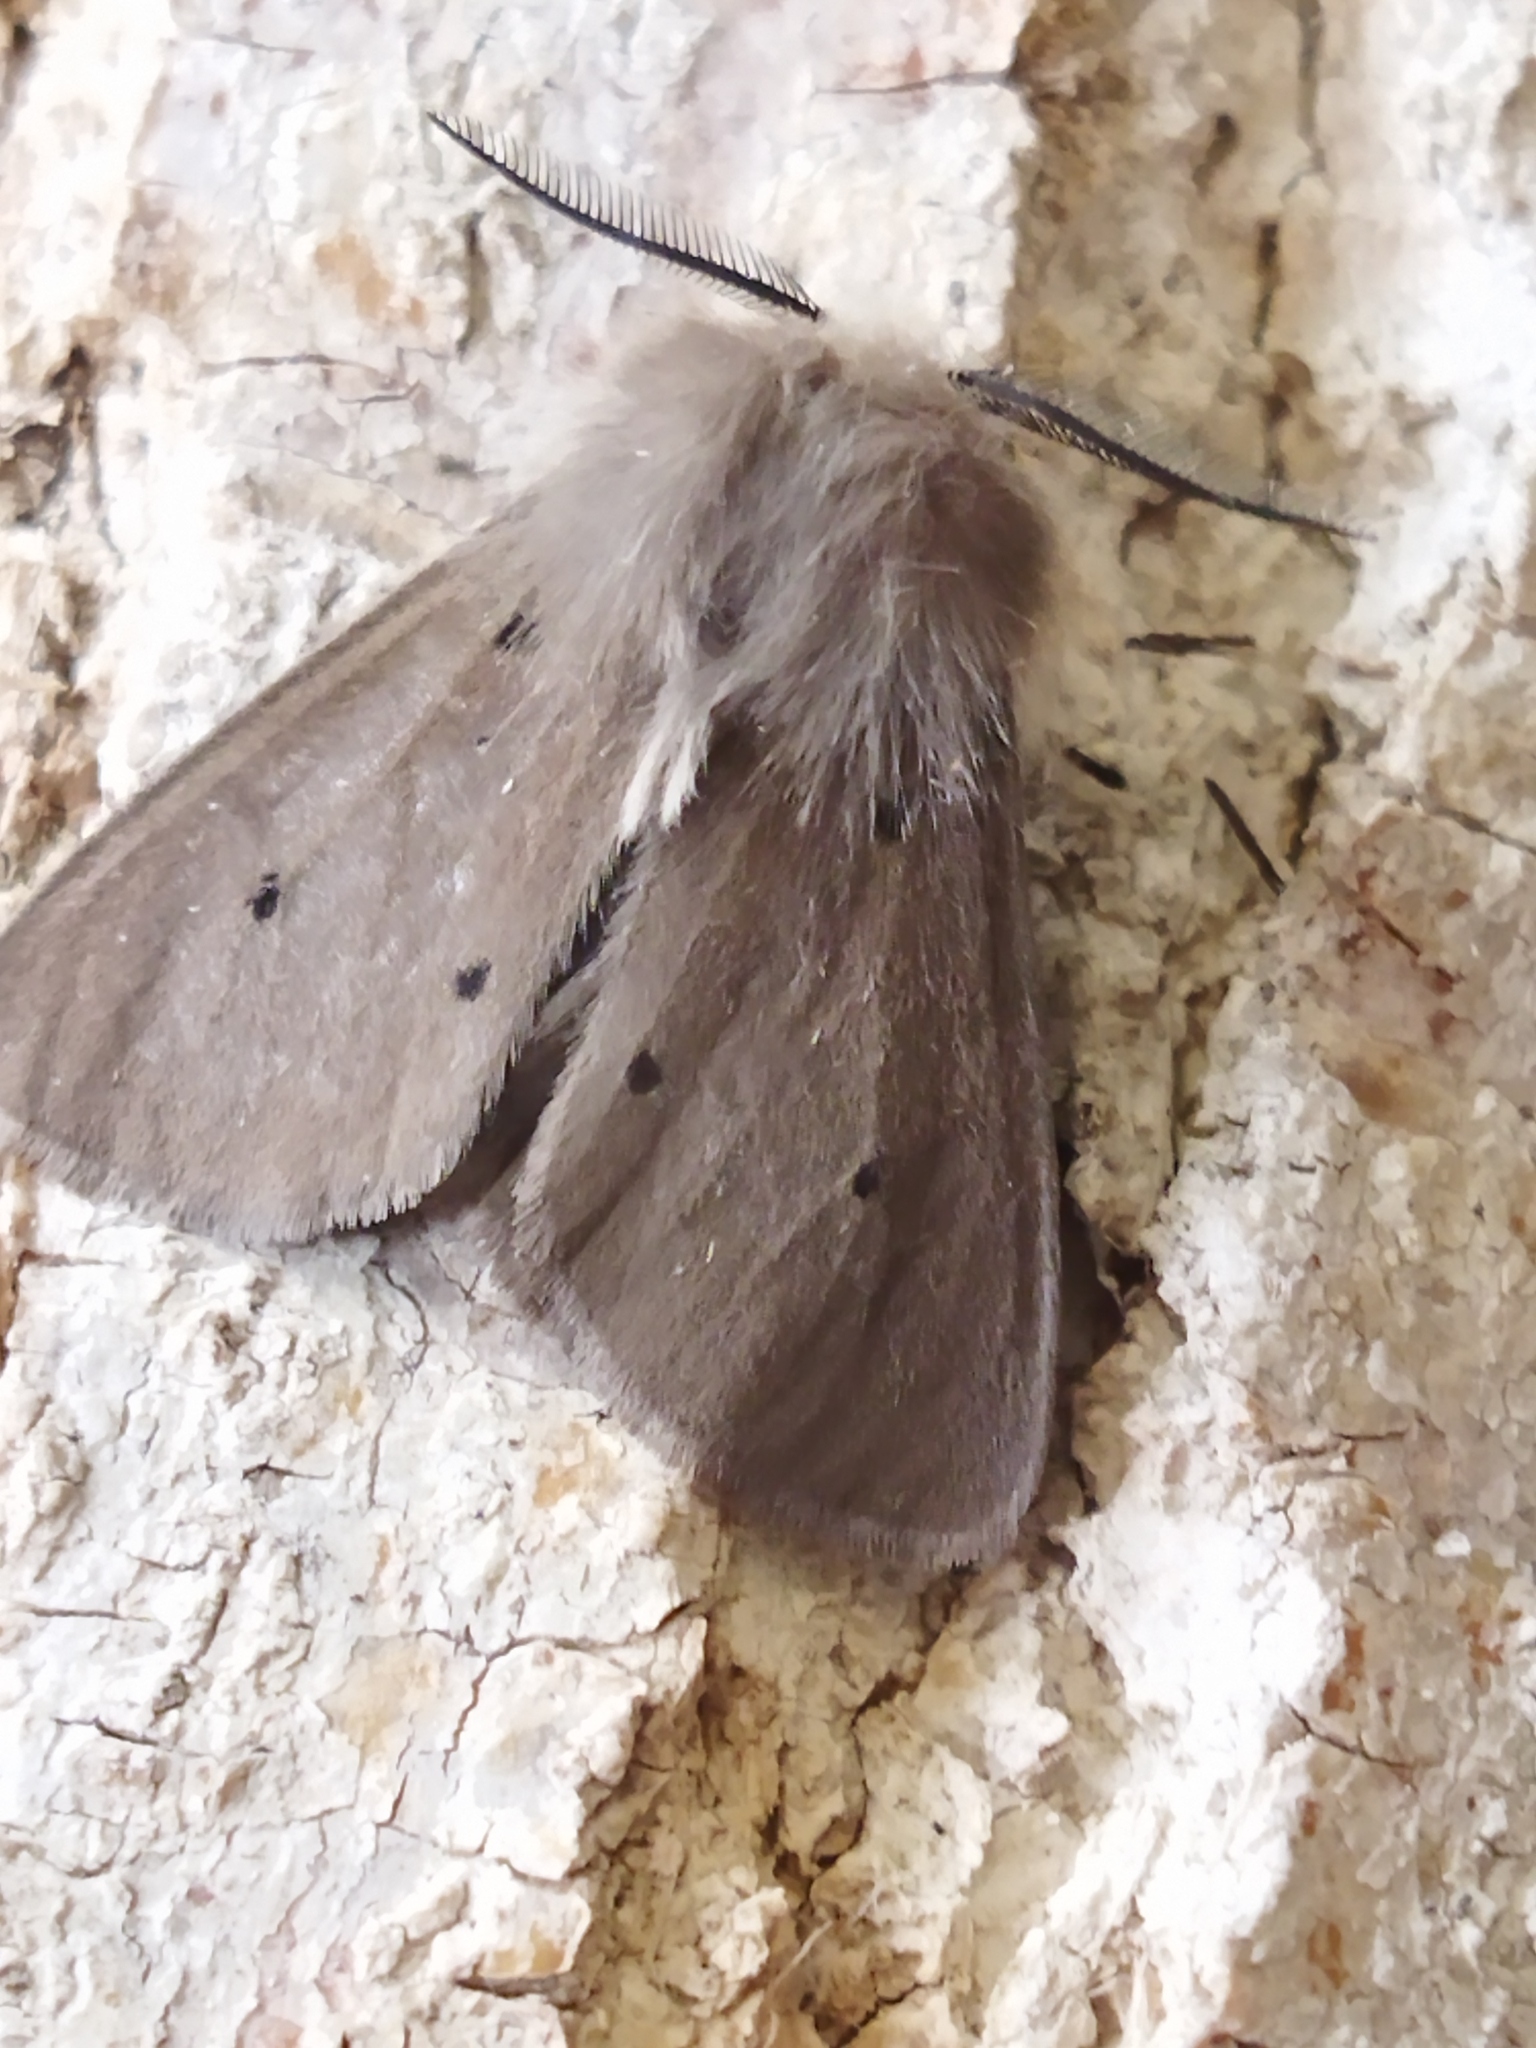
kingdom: Animalia
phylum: Arthropoda
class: Insecta
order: Lepidoptera
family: Erebidae
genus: Diaphora
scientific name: Diaphora mendica
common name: Muslin moth
